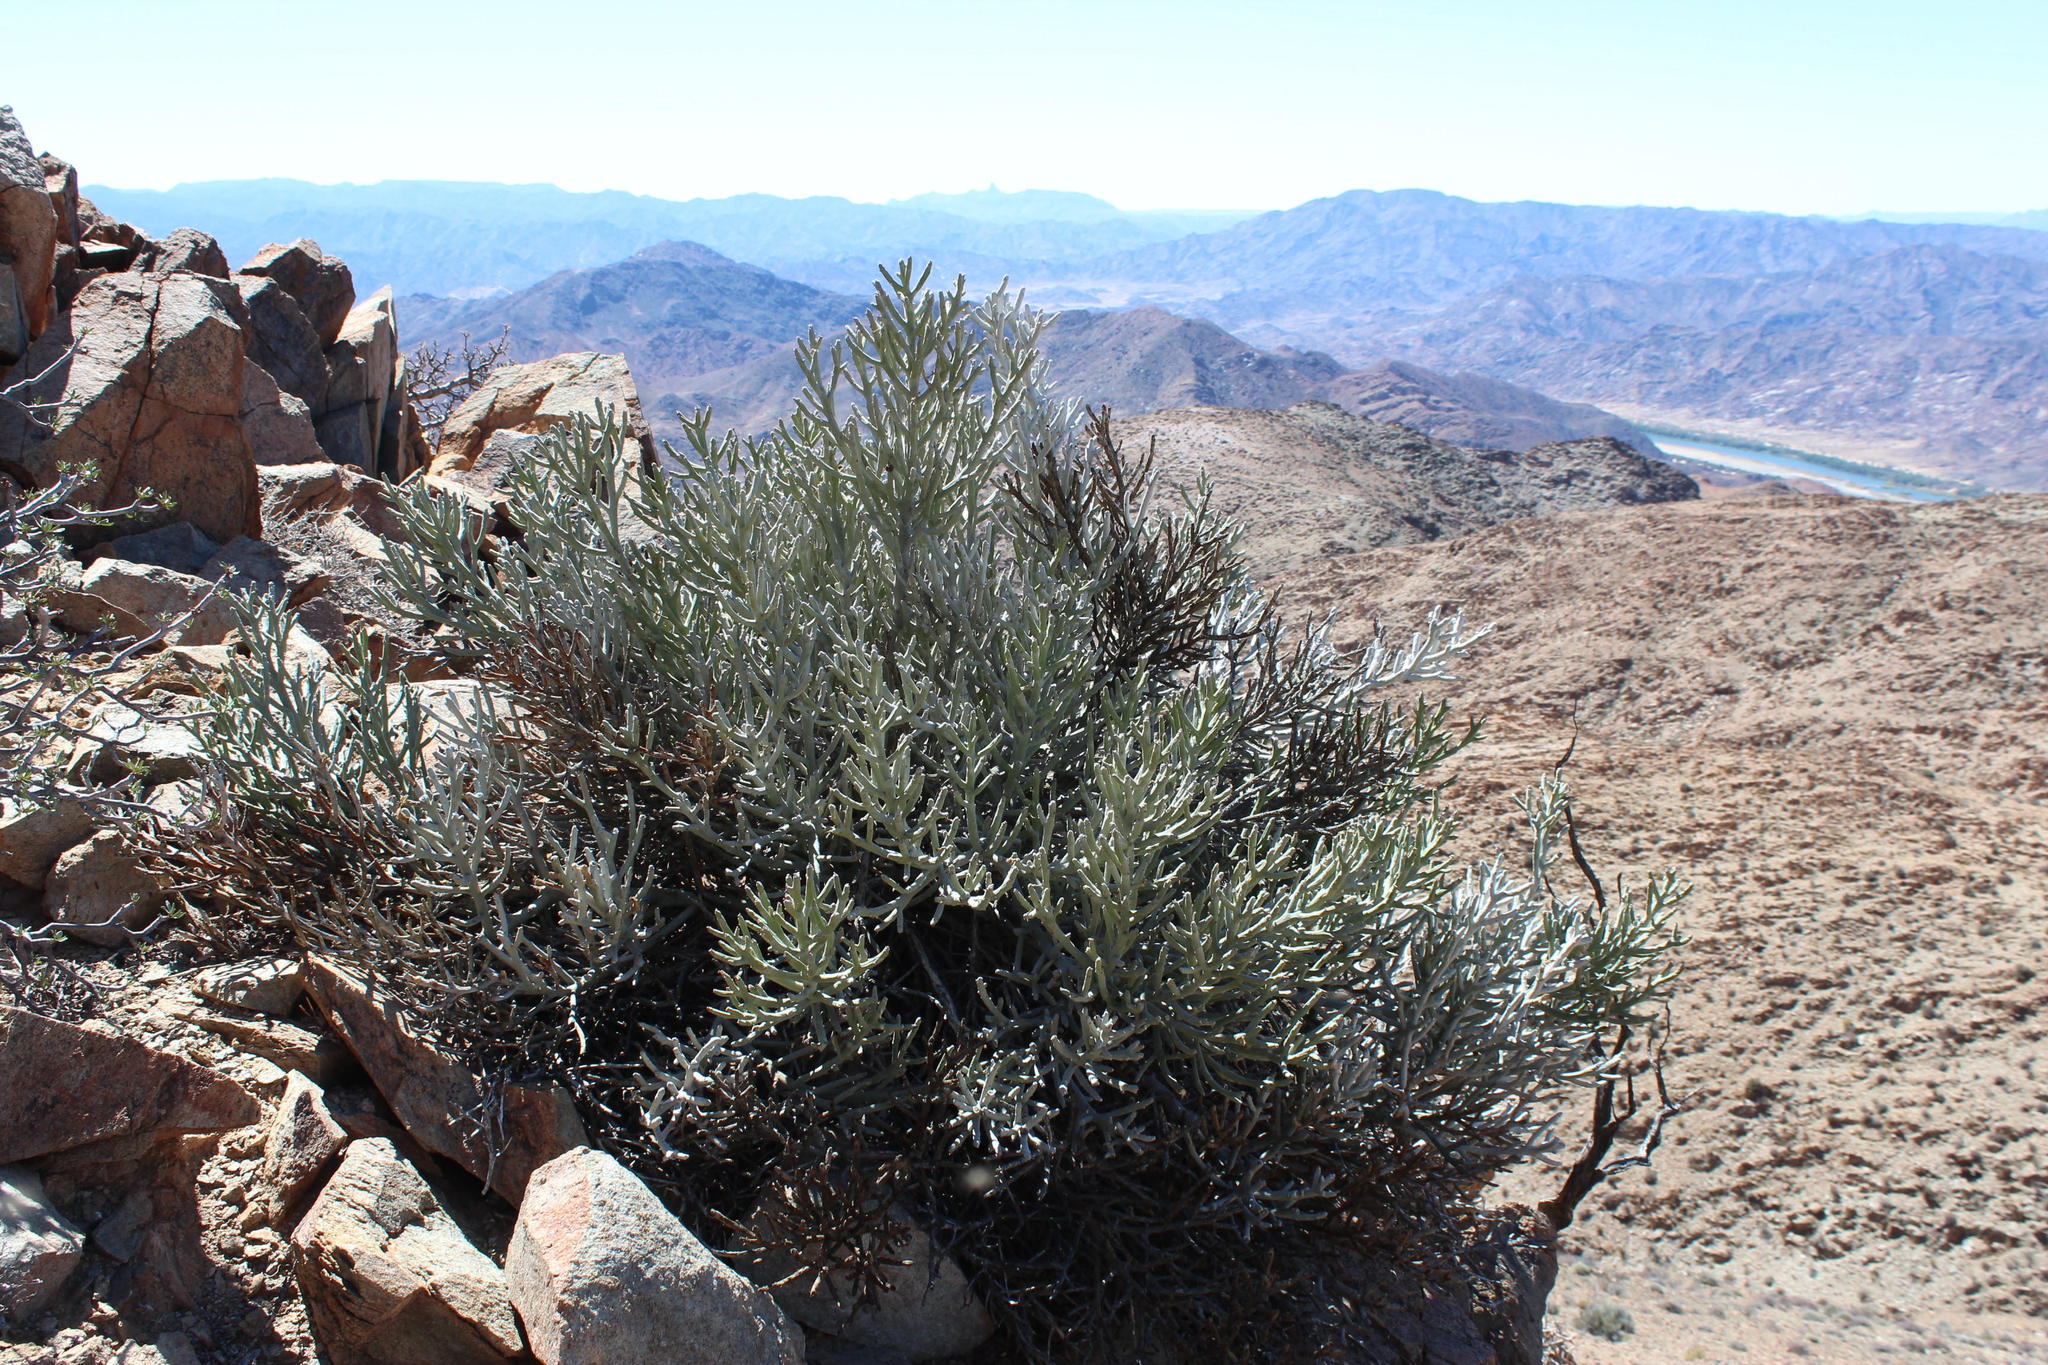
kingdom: Plantae
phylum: Tracheophyta
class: Magnoliopsida
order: Malpighiales
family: Euphorbiaceae
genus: Euphorbia
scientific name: Euphorbia gummifera
